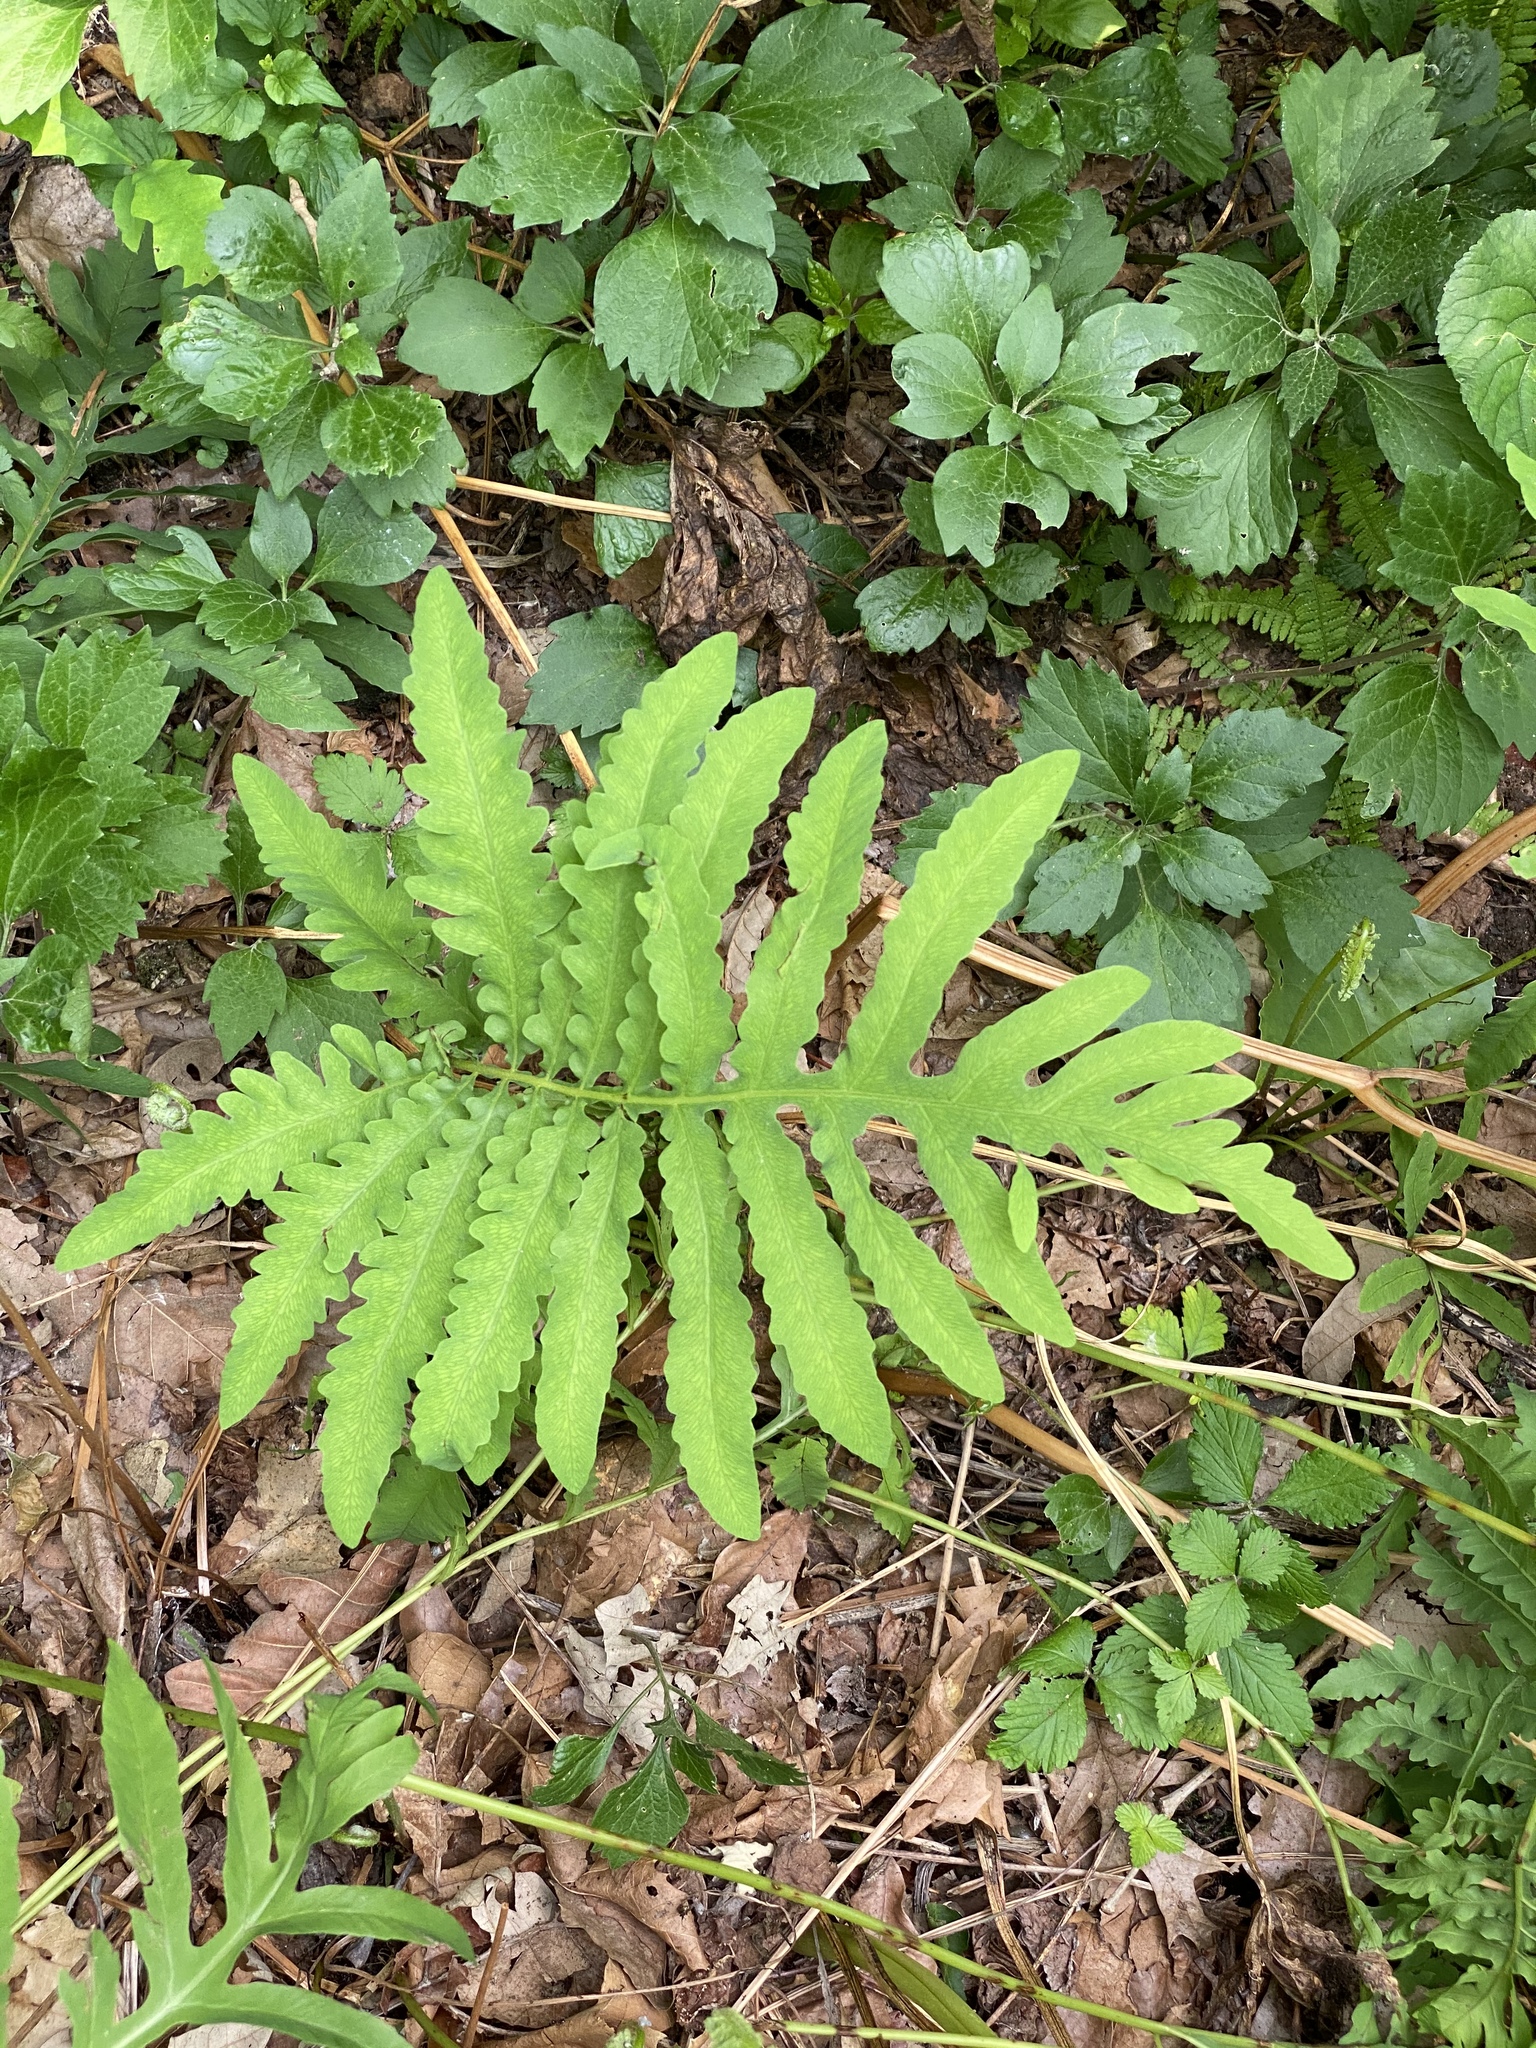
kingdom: Plantae
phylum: Tracheophyta
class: Polypodiopsida
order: Polypodiales
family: Onocleaceae
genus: Onoclea
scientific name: Onoclea sensibilis
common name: Sensitive fern
